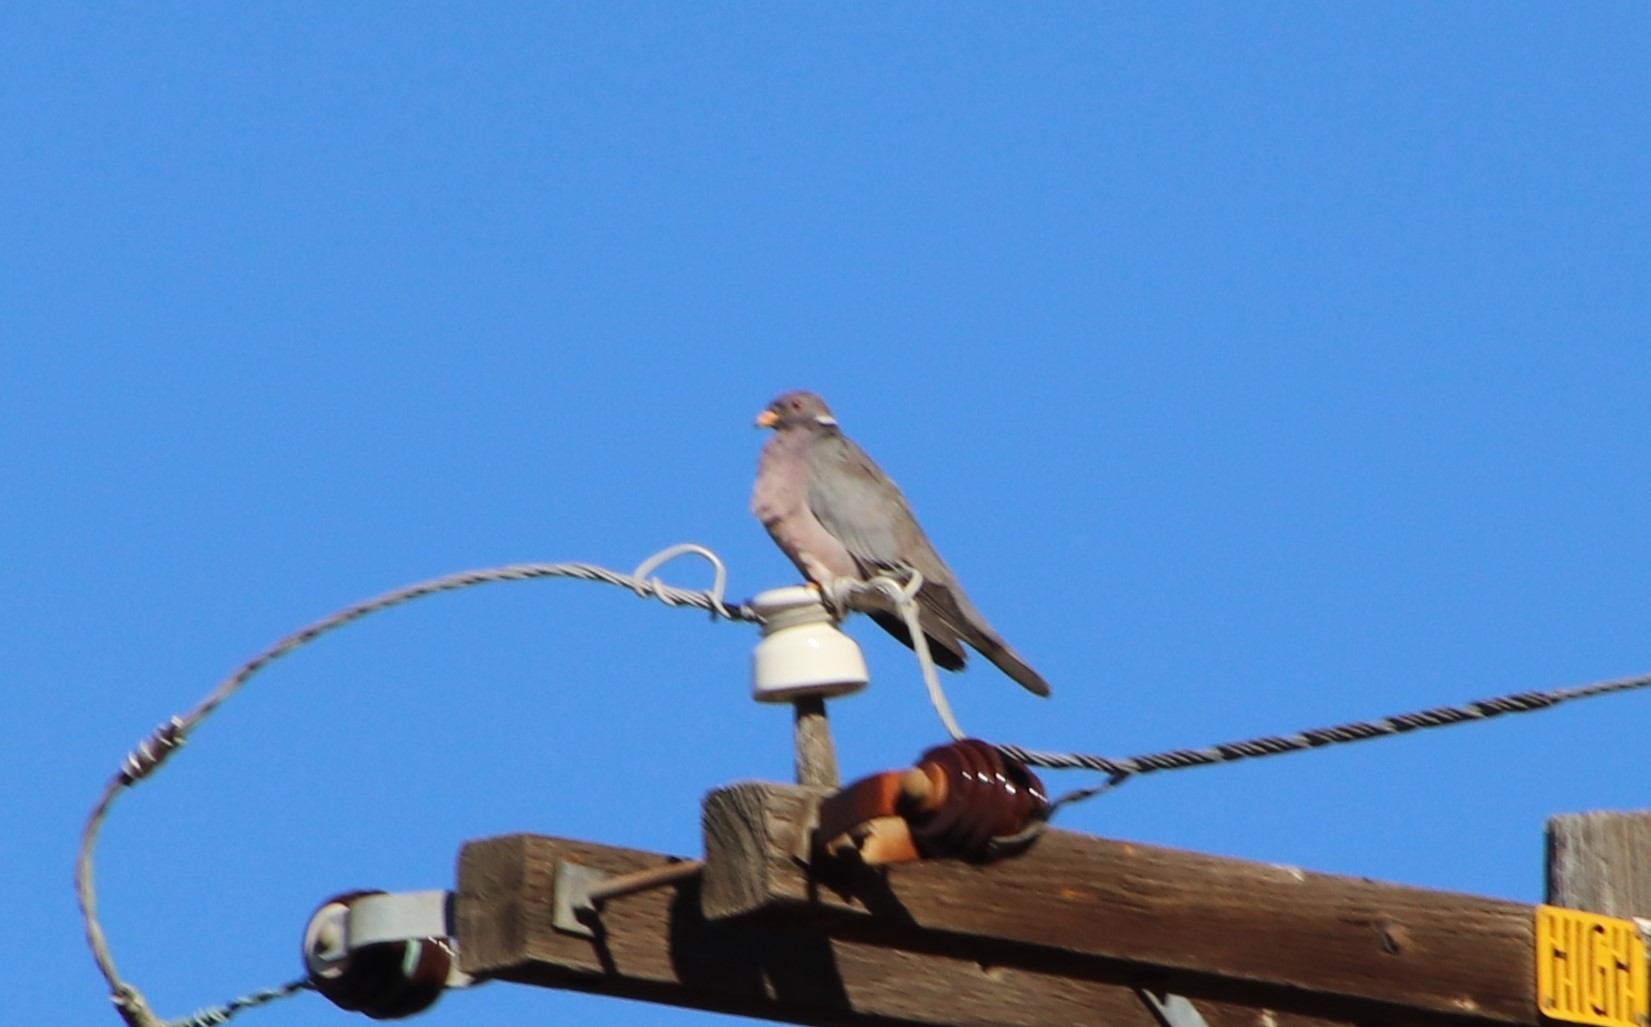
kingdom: Animalia
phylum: Chordata
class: Aves
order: Columbiformes
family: Columbidae
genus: Patagioenas
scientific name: Patagioenas fasciata
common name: Band-tailed pigeon
